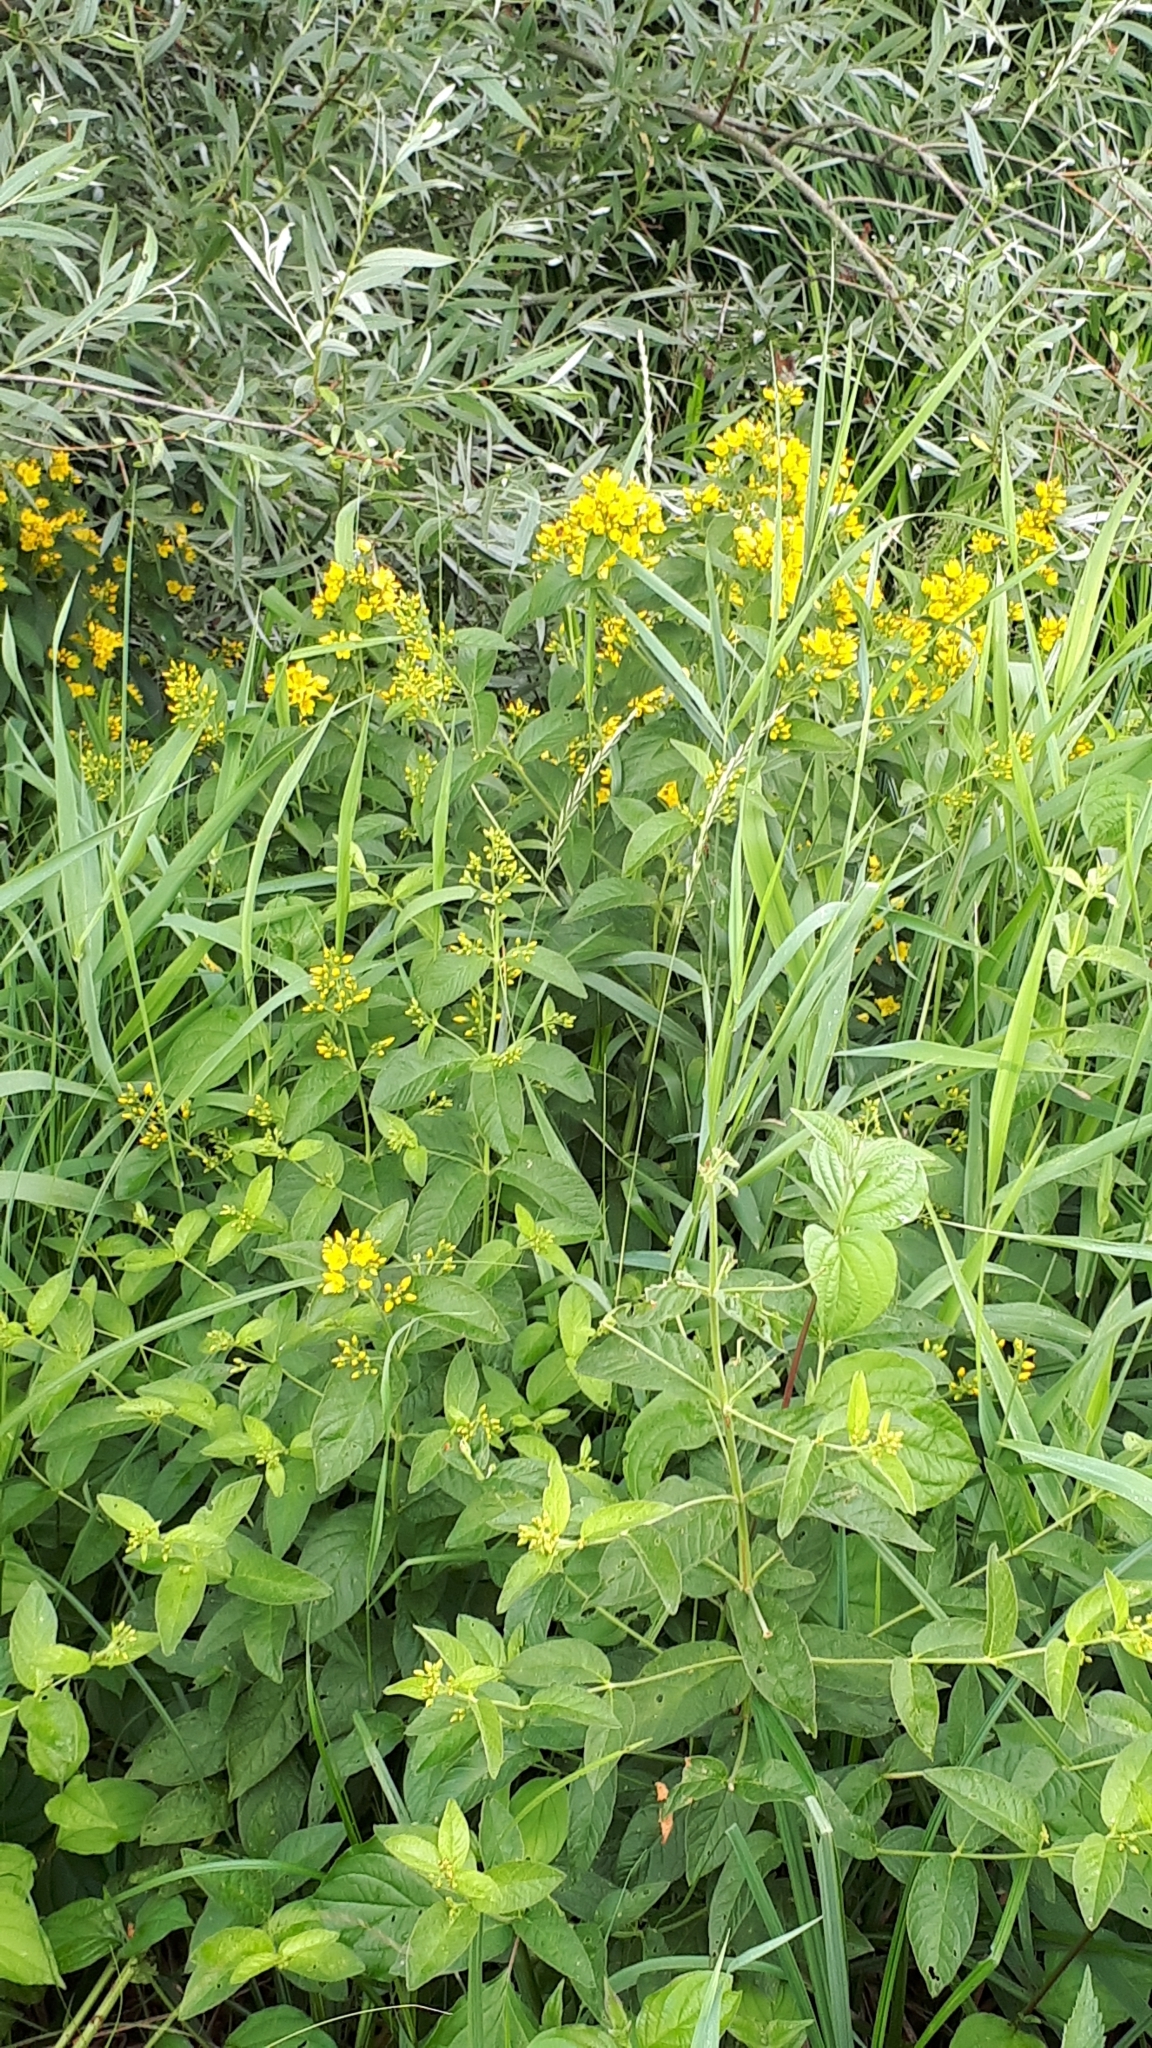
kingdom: Plantae
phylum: Tracheophyta
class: Magnoliopsida
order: Ericales
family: Primulaceae
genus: Lysimachia
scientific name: Lysimachia vulgaris
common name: Yellow loosestrife
